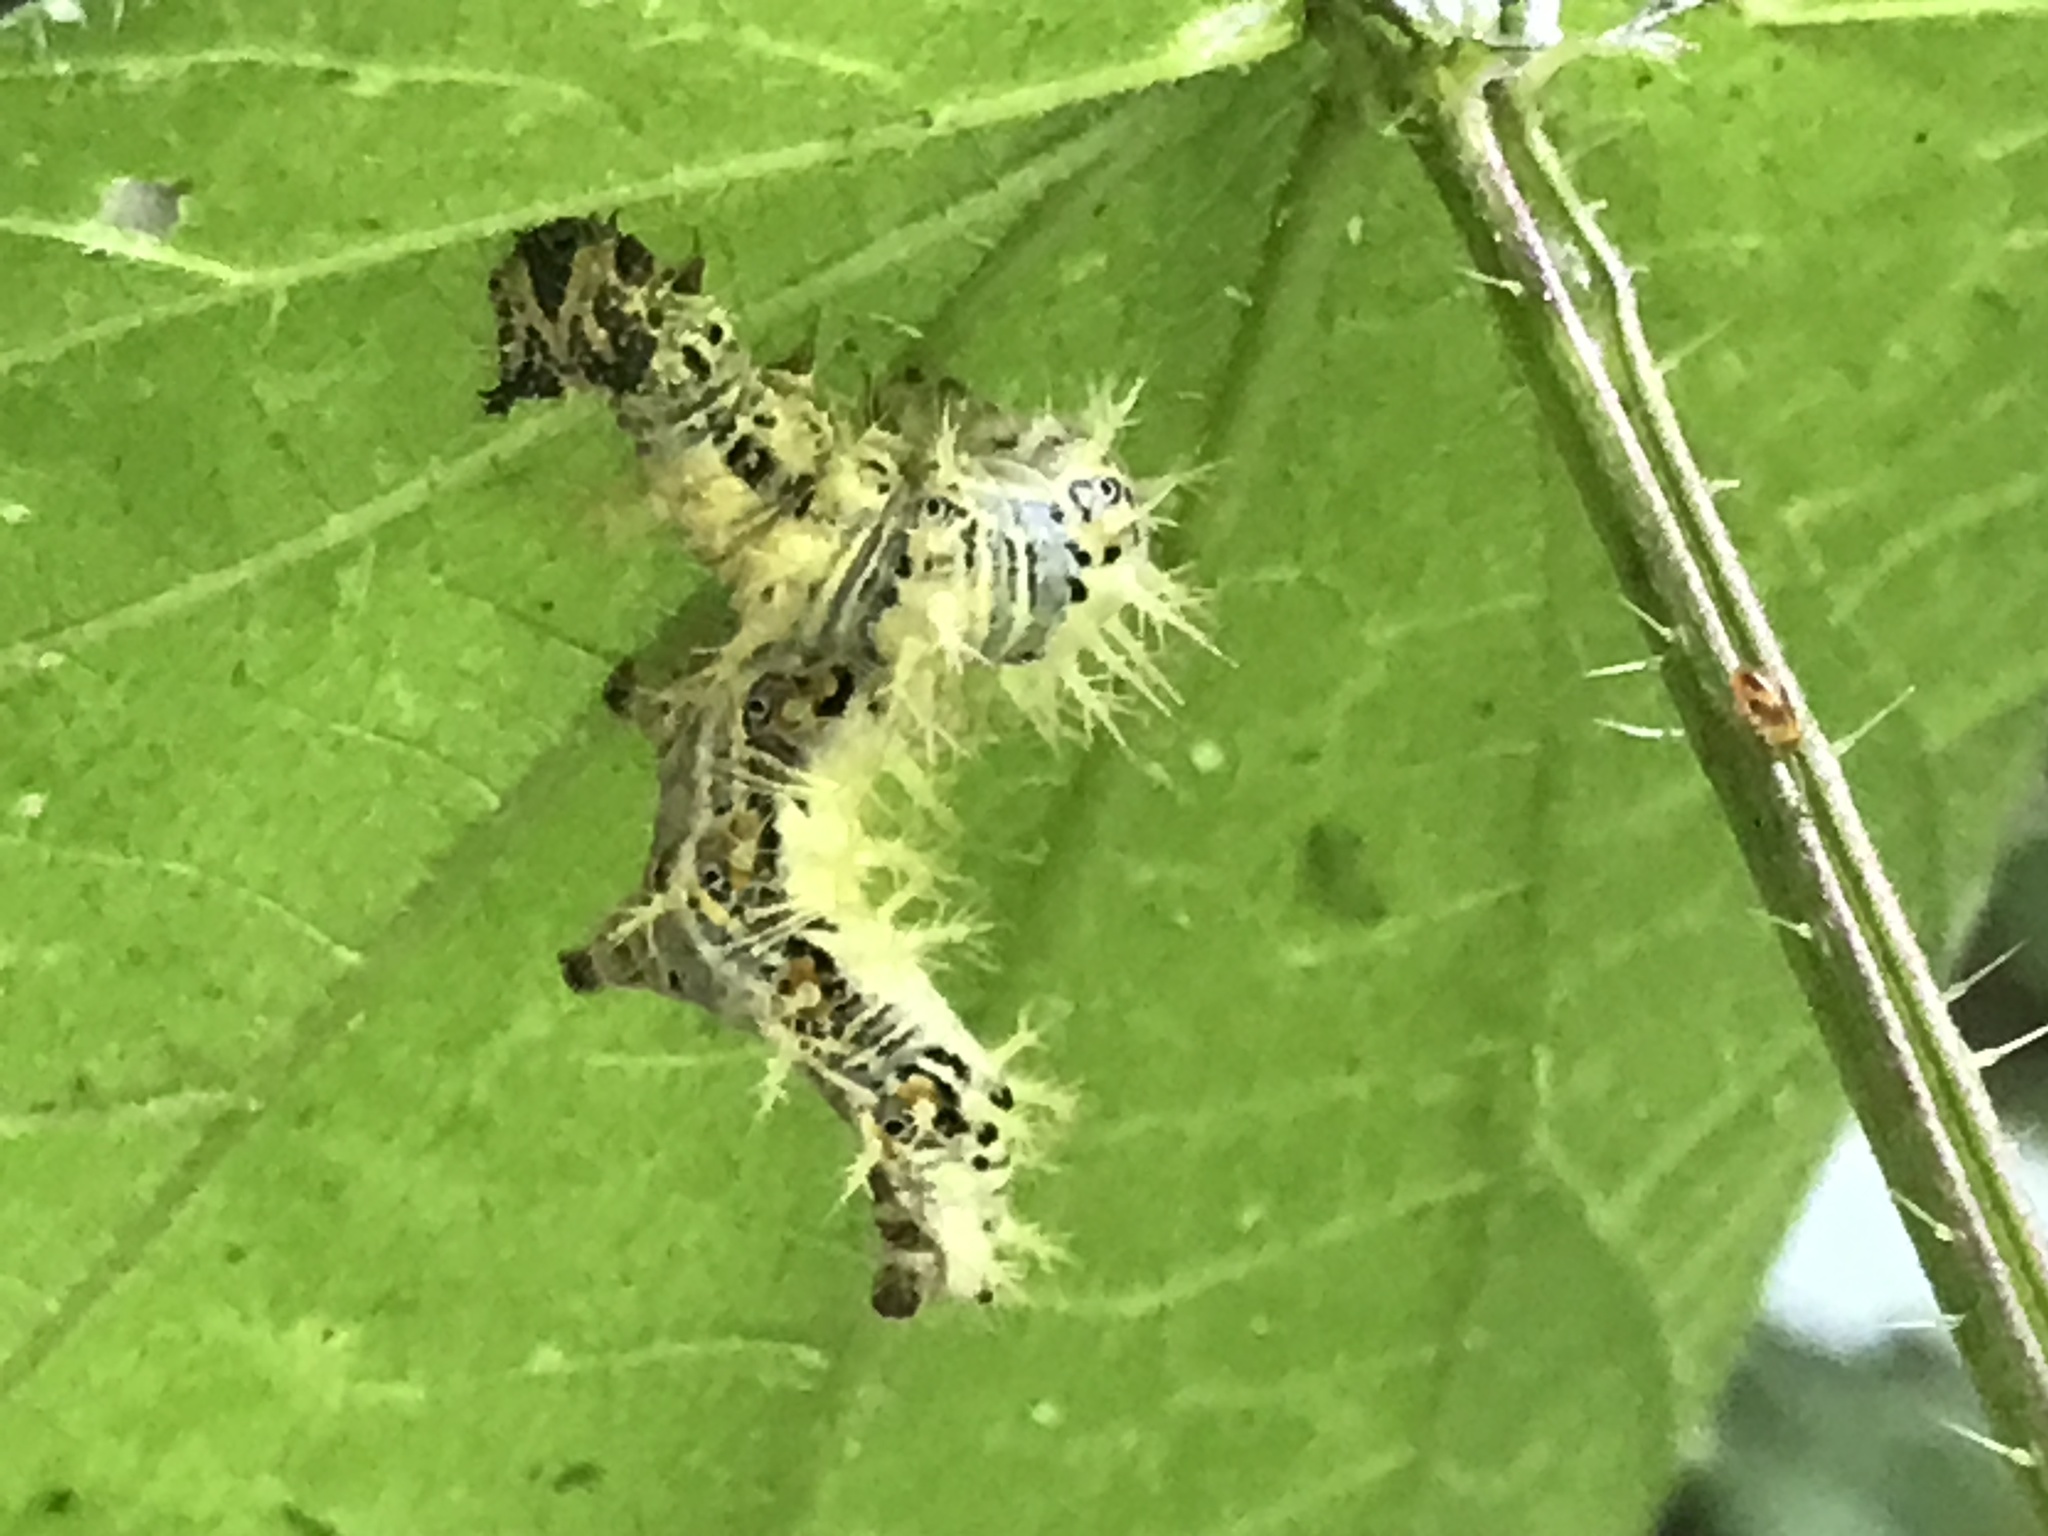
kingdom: Animalia
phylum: Arthropoda
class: Insecta
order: Lepidoptera
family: Nymphalidae
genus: Polygonia
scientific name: Polygonia c-album
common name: Comma
